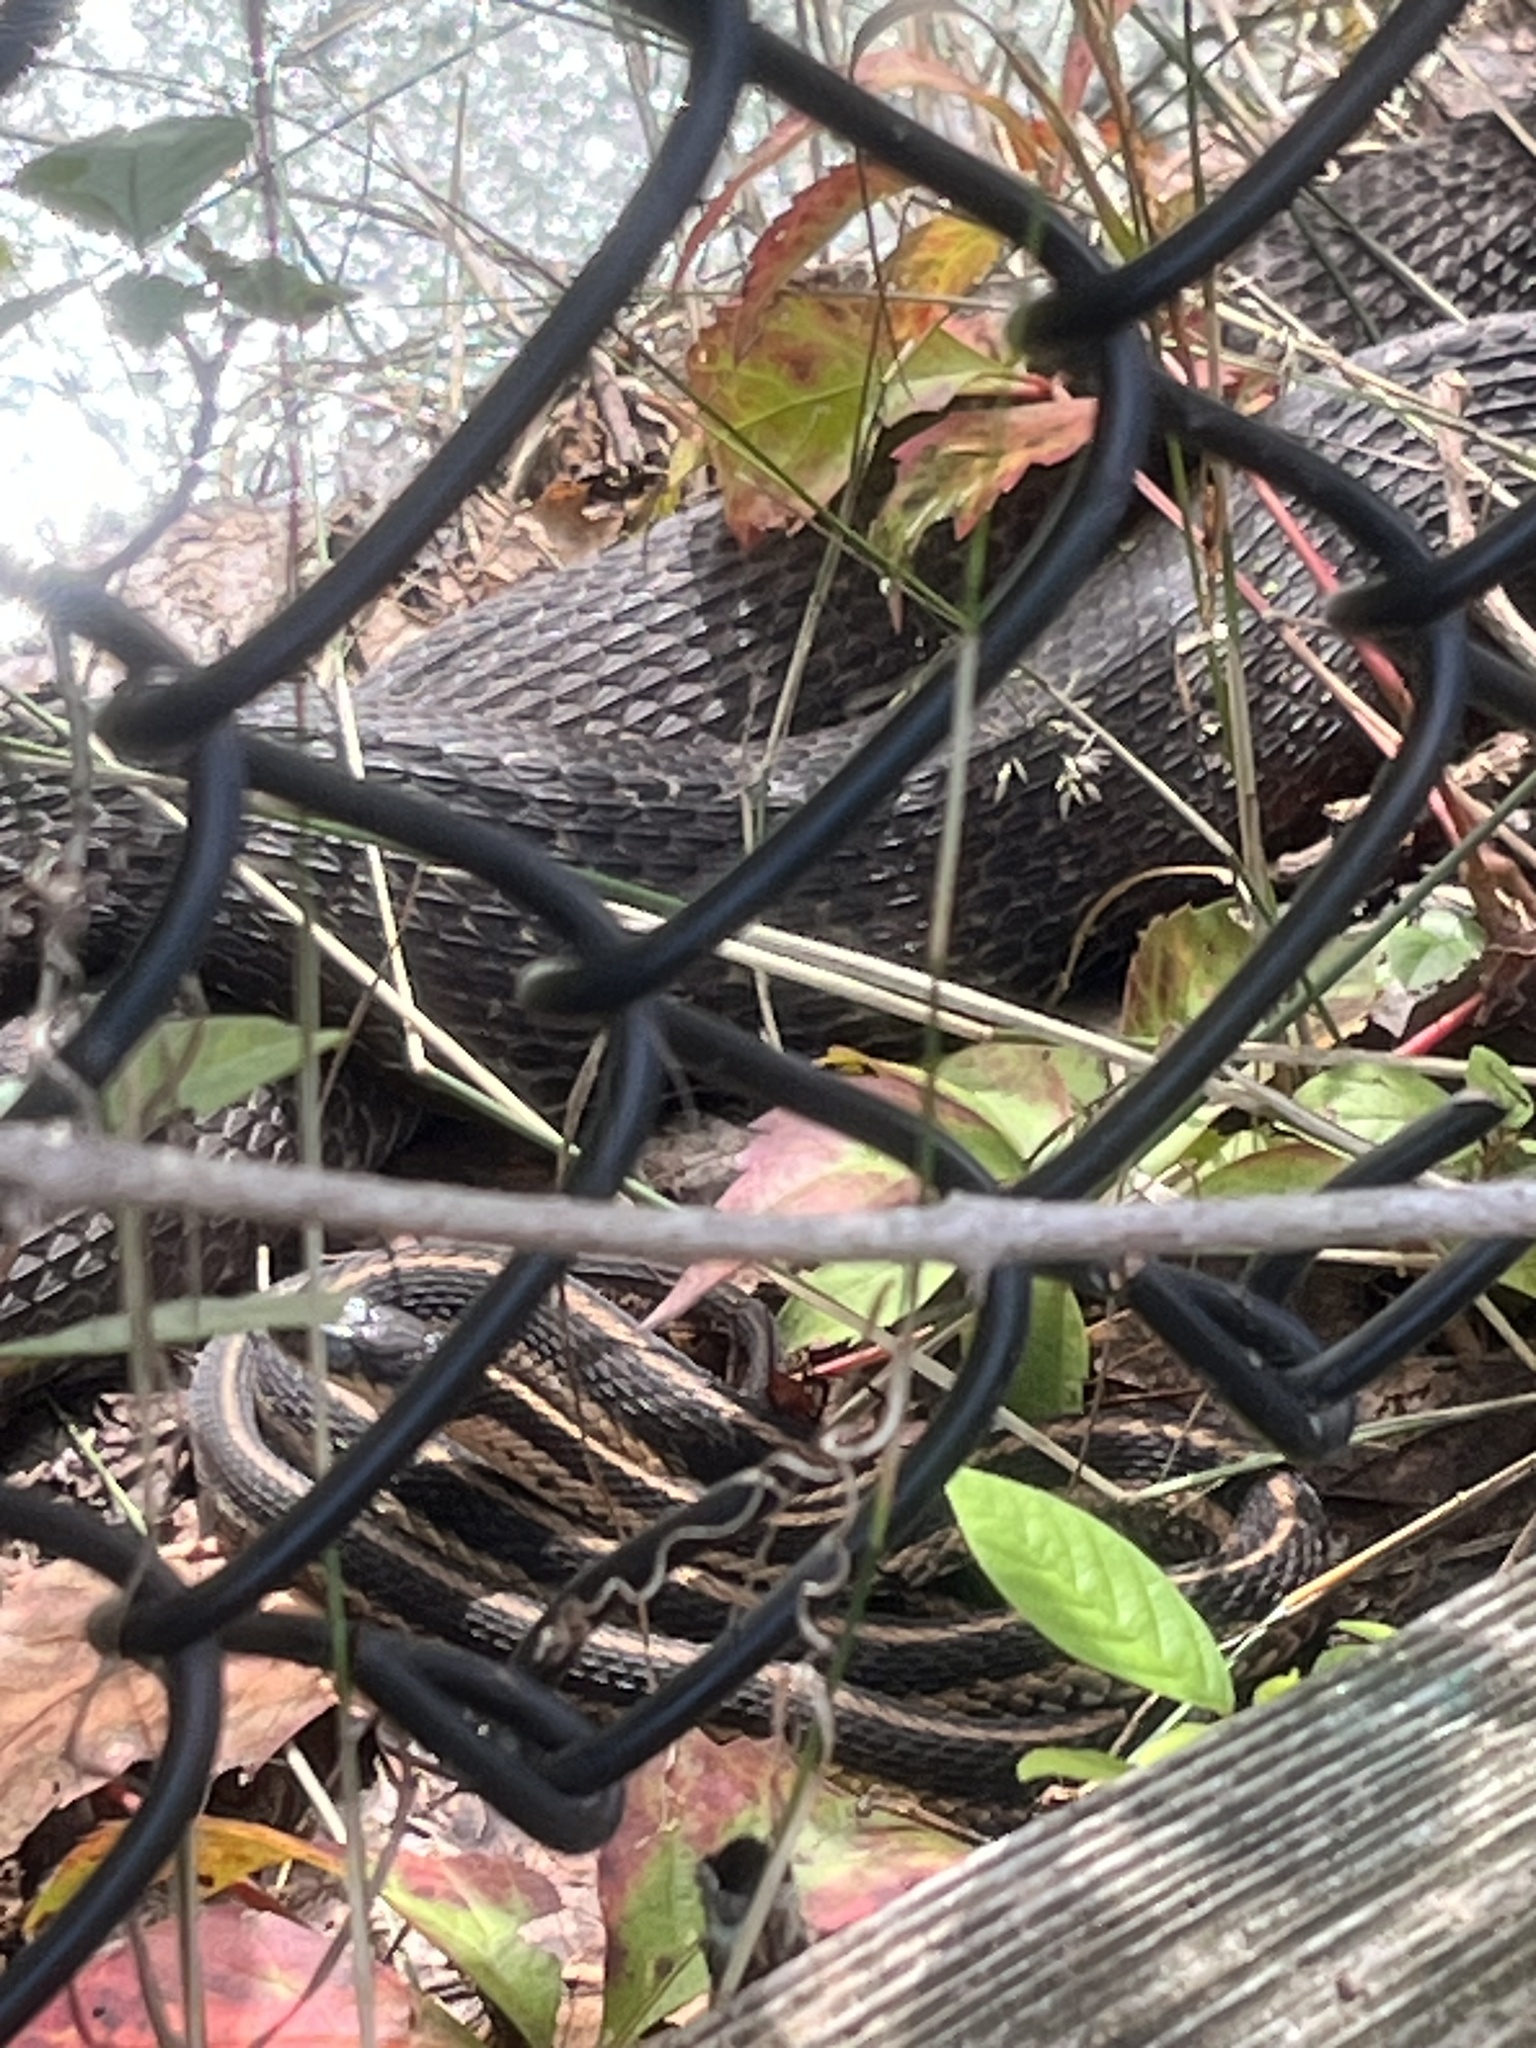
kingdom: Animalia
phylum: Chordata
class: Squamata
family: Colubridae
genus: Thamnophis
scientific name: Thamnophis sirtalis
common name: Common garter snake
